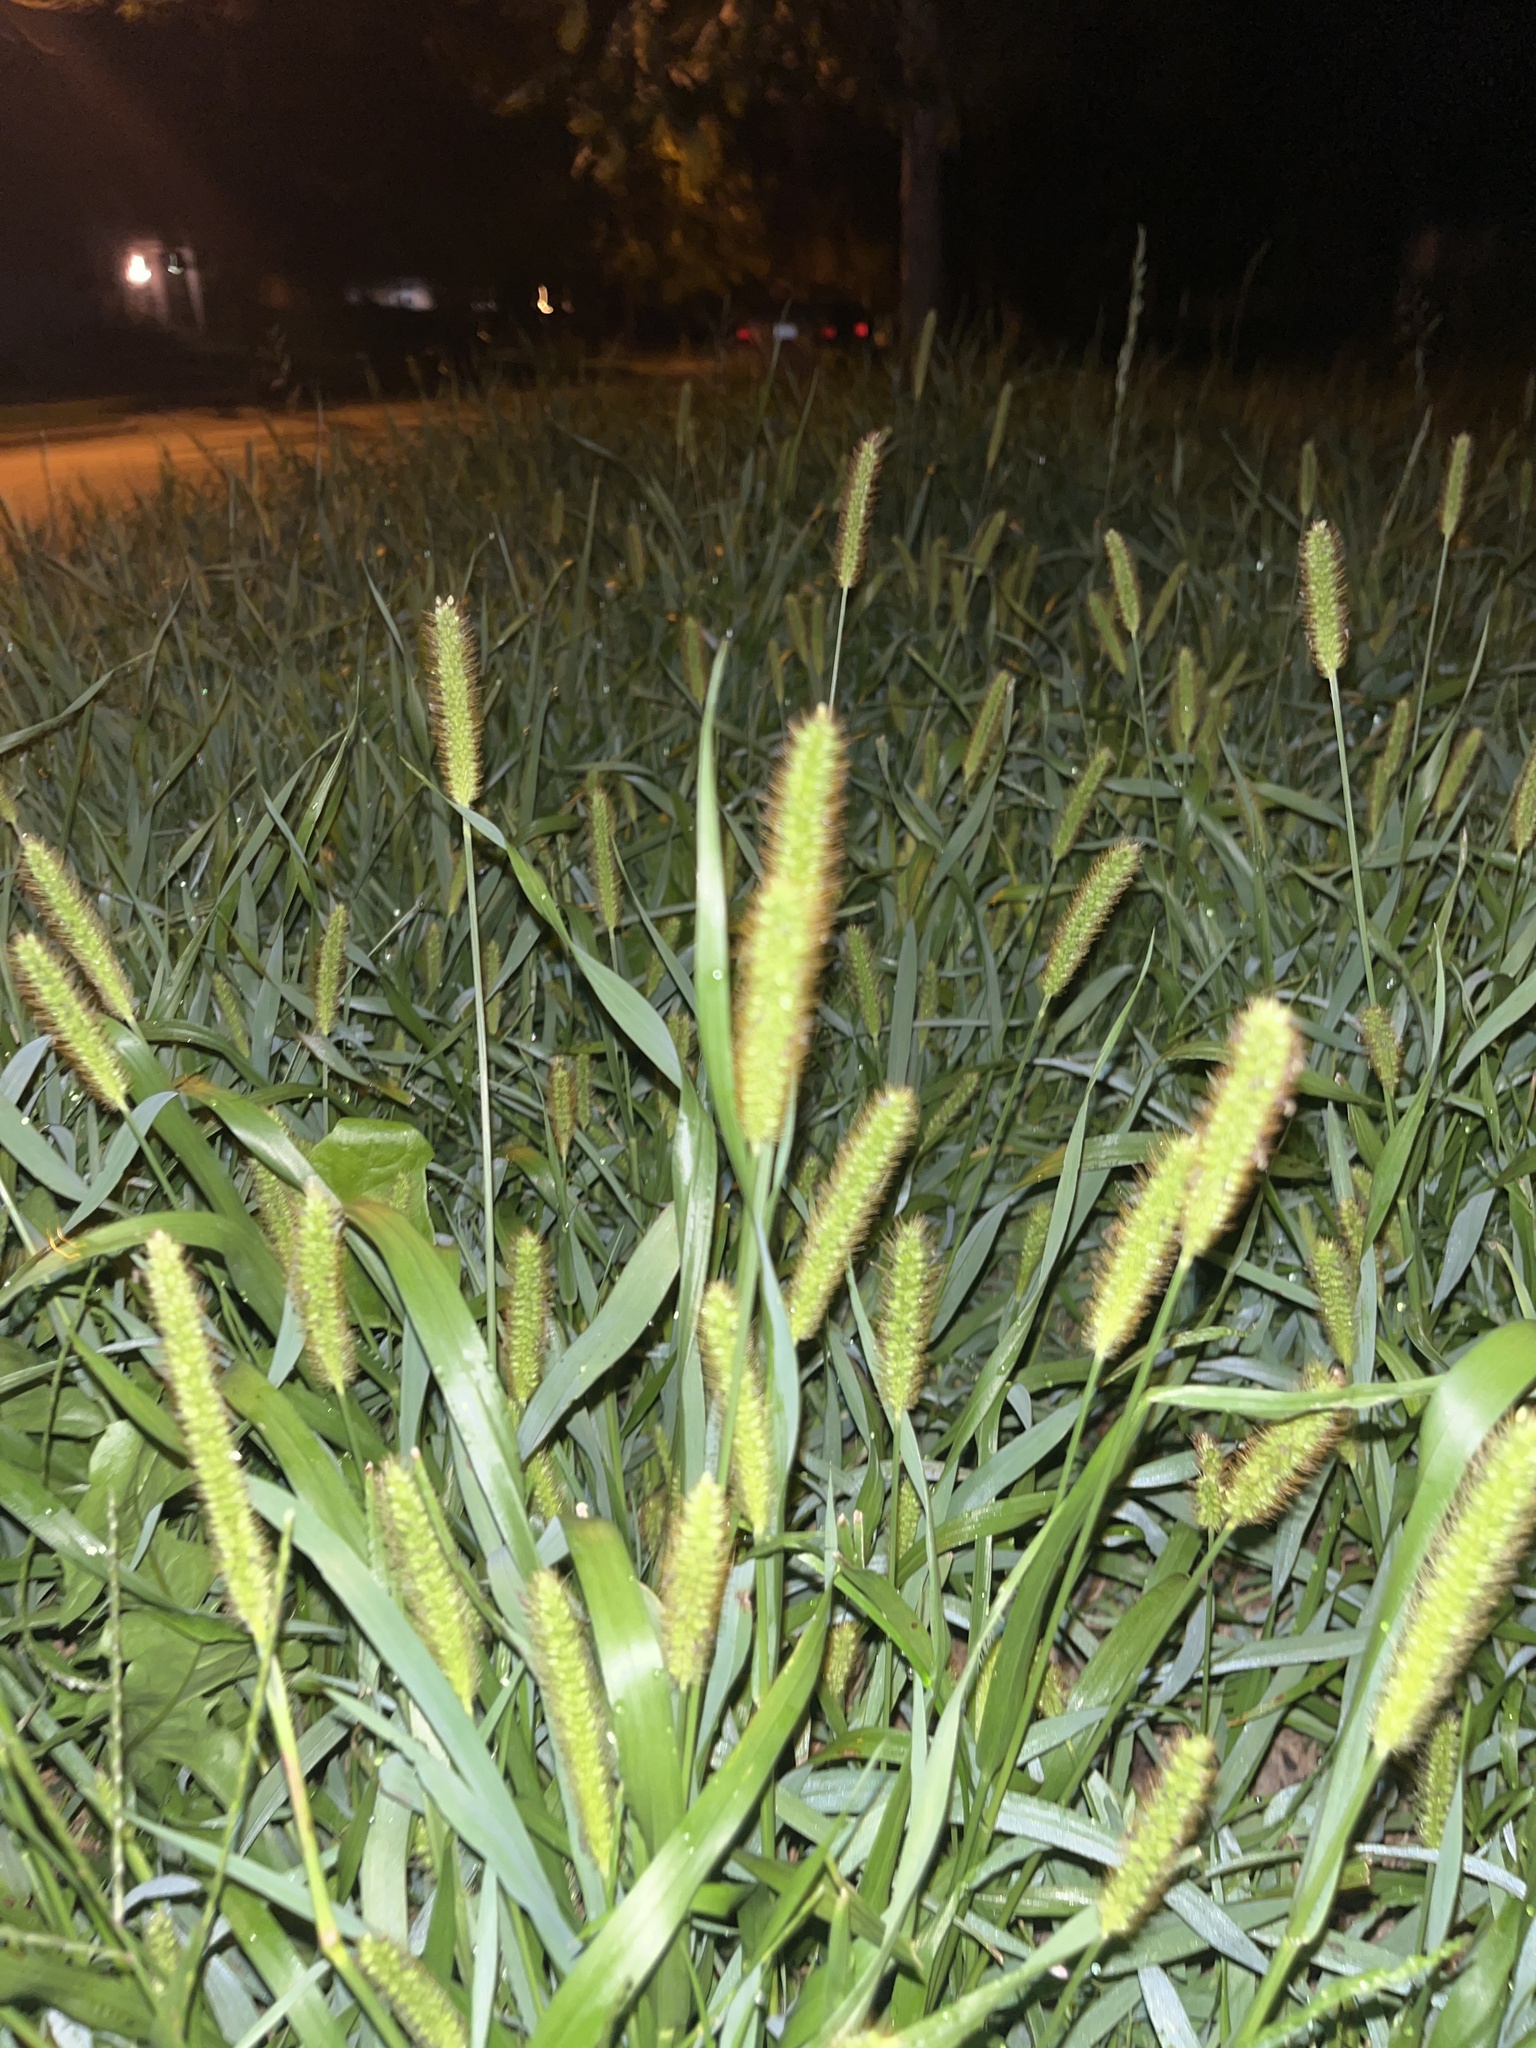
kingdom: Plantae
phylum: Tracheophyta
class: Liliopsida
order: Poales
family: Poaceae
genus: Setaria
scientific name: Setaria pumila
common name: Yellow bristle-grass
